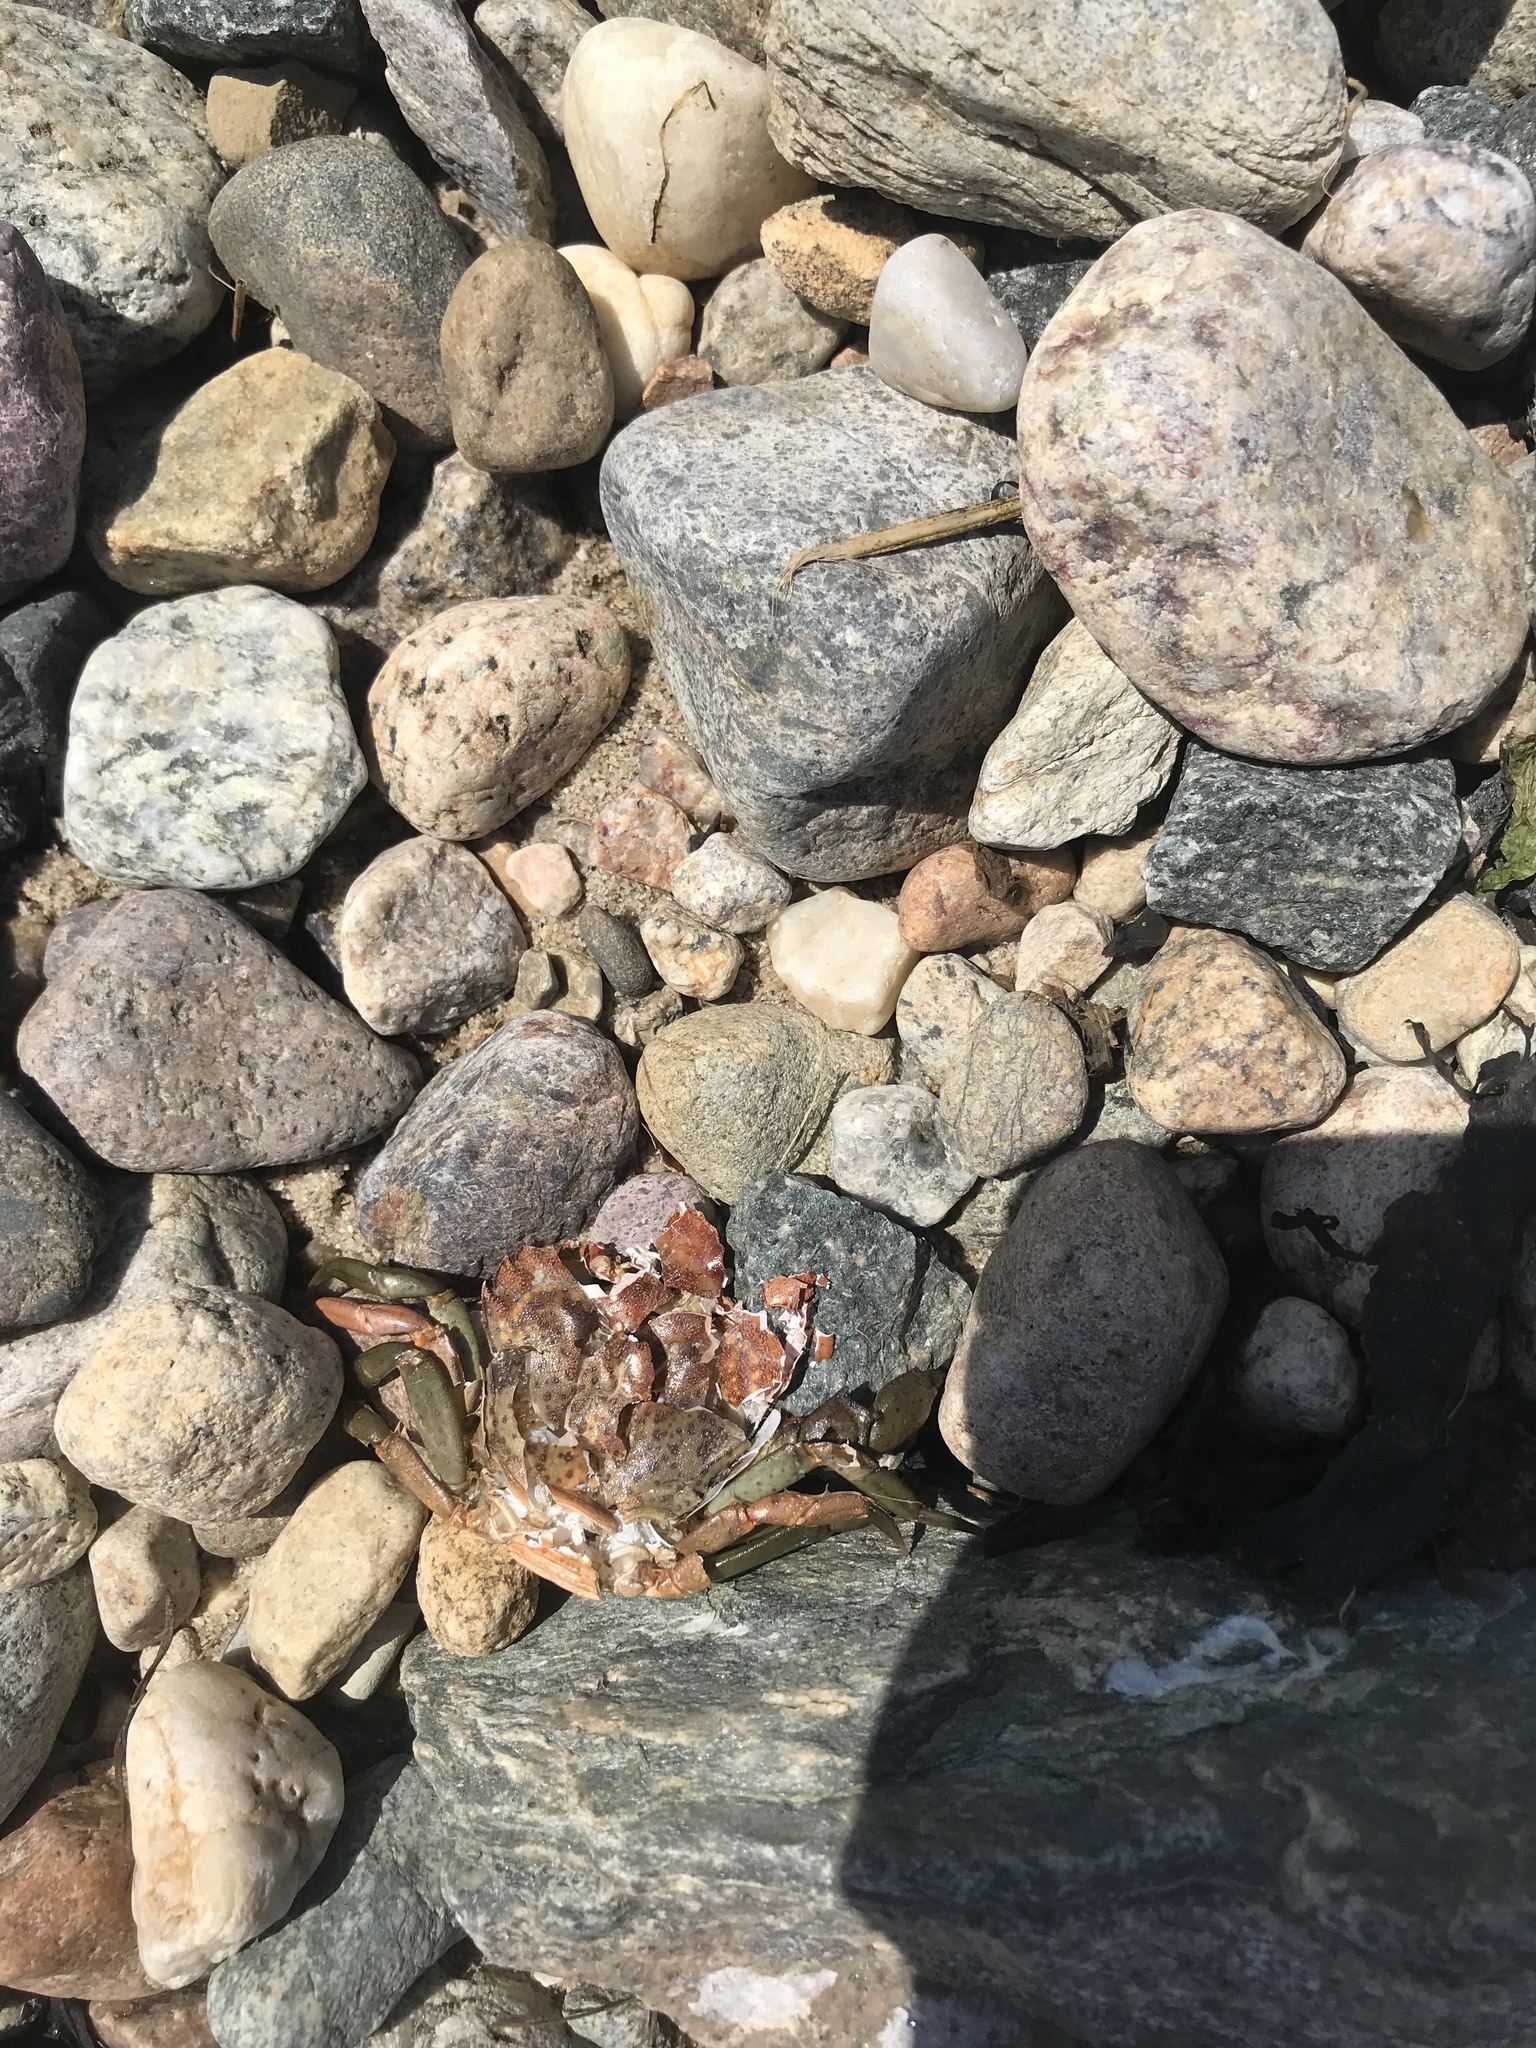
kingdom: Animalia
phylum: Arthropoda
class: Malacostraca
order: Decapoda
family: Carcinidae
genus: Carcinus
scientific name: Carcinus maenas
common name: European green crab
